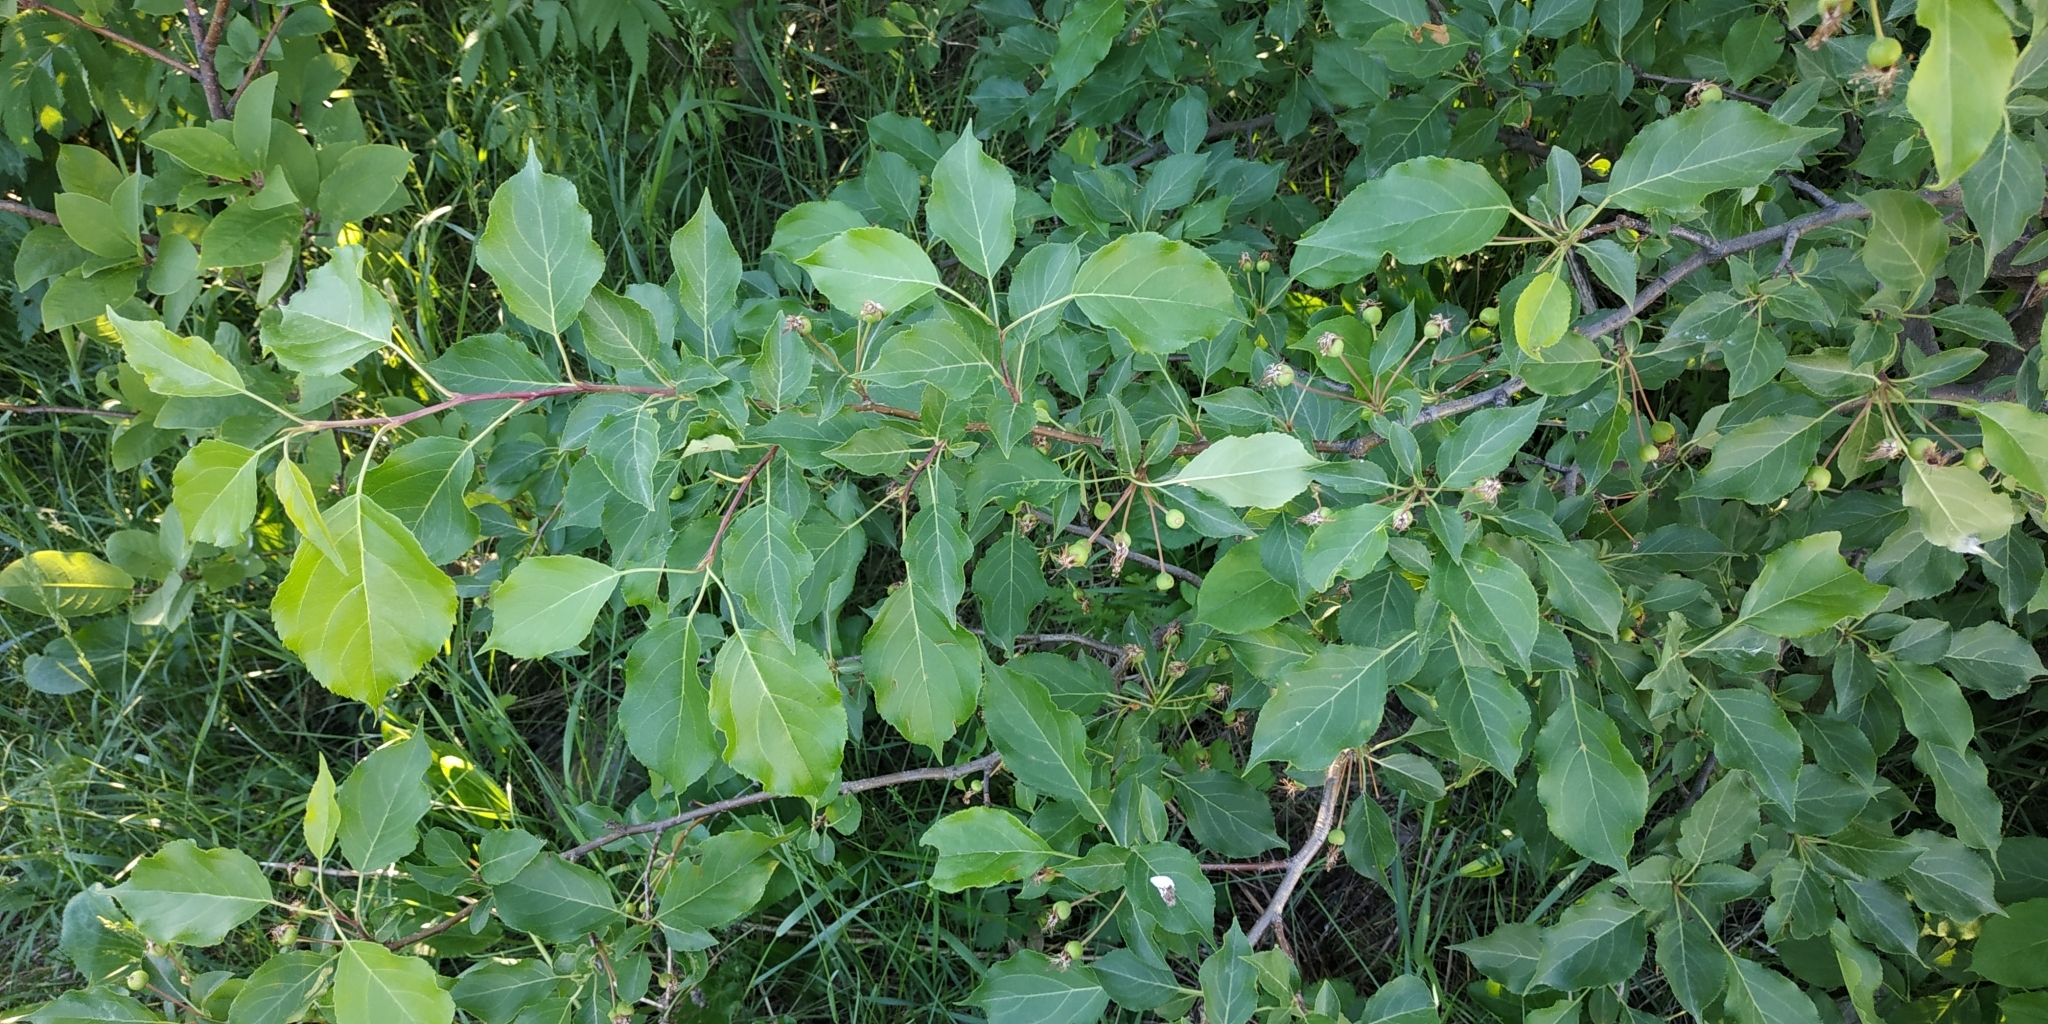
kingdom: Plantae
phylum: Tracheophyta
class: Magnoliopsida
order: Rosales
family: Rosaceae
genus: Malus
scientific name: Malus baccata
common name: Siberian crab
